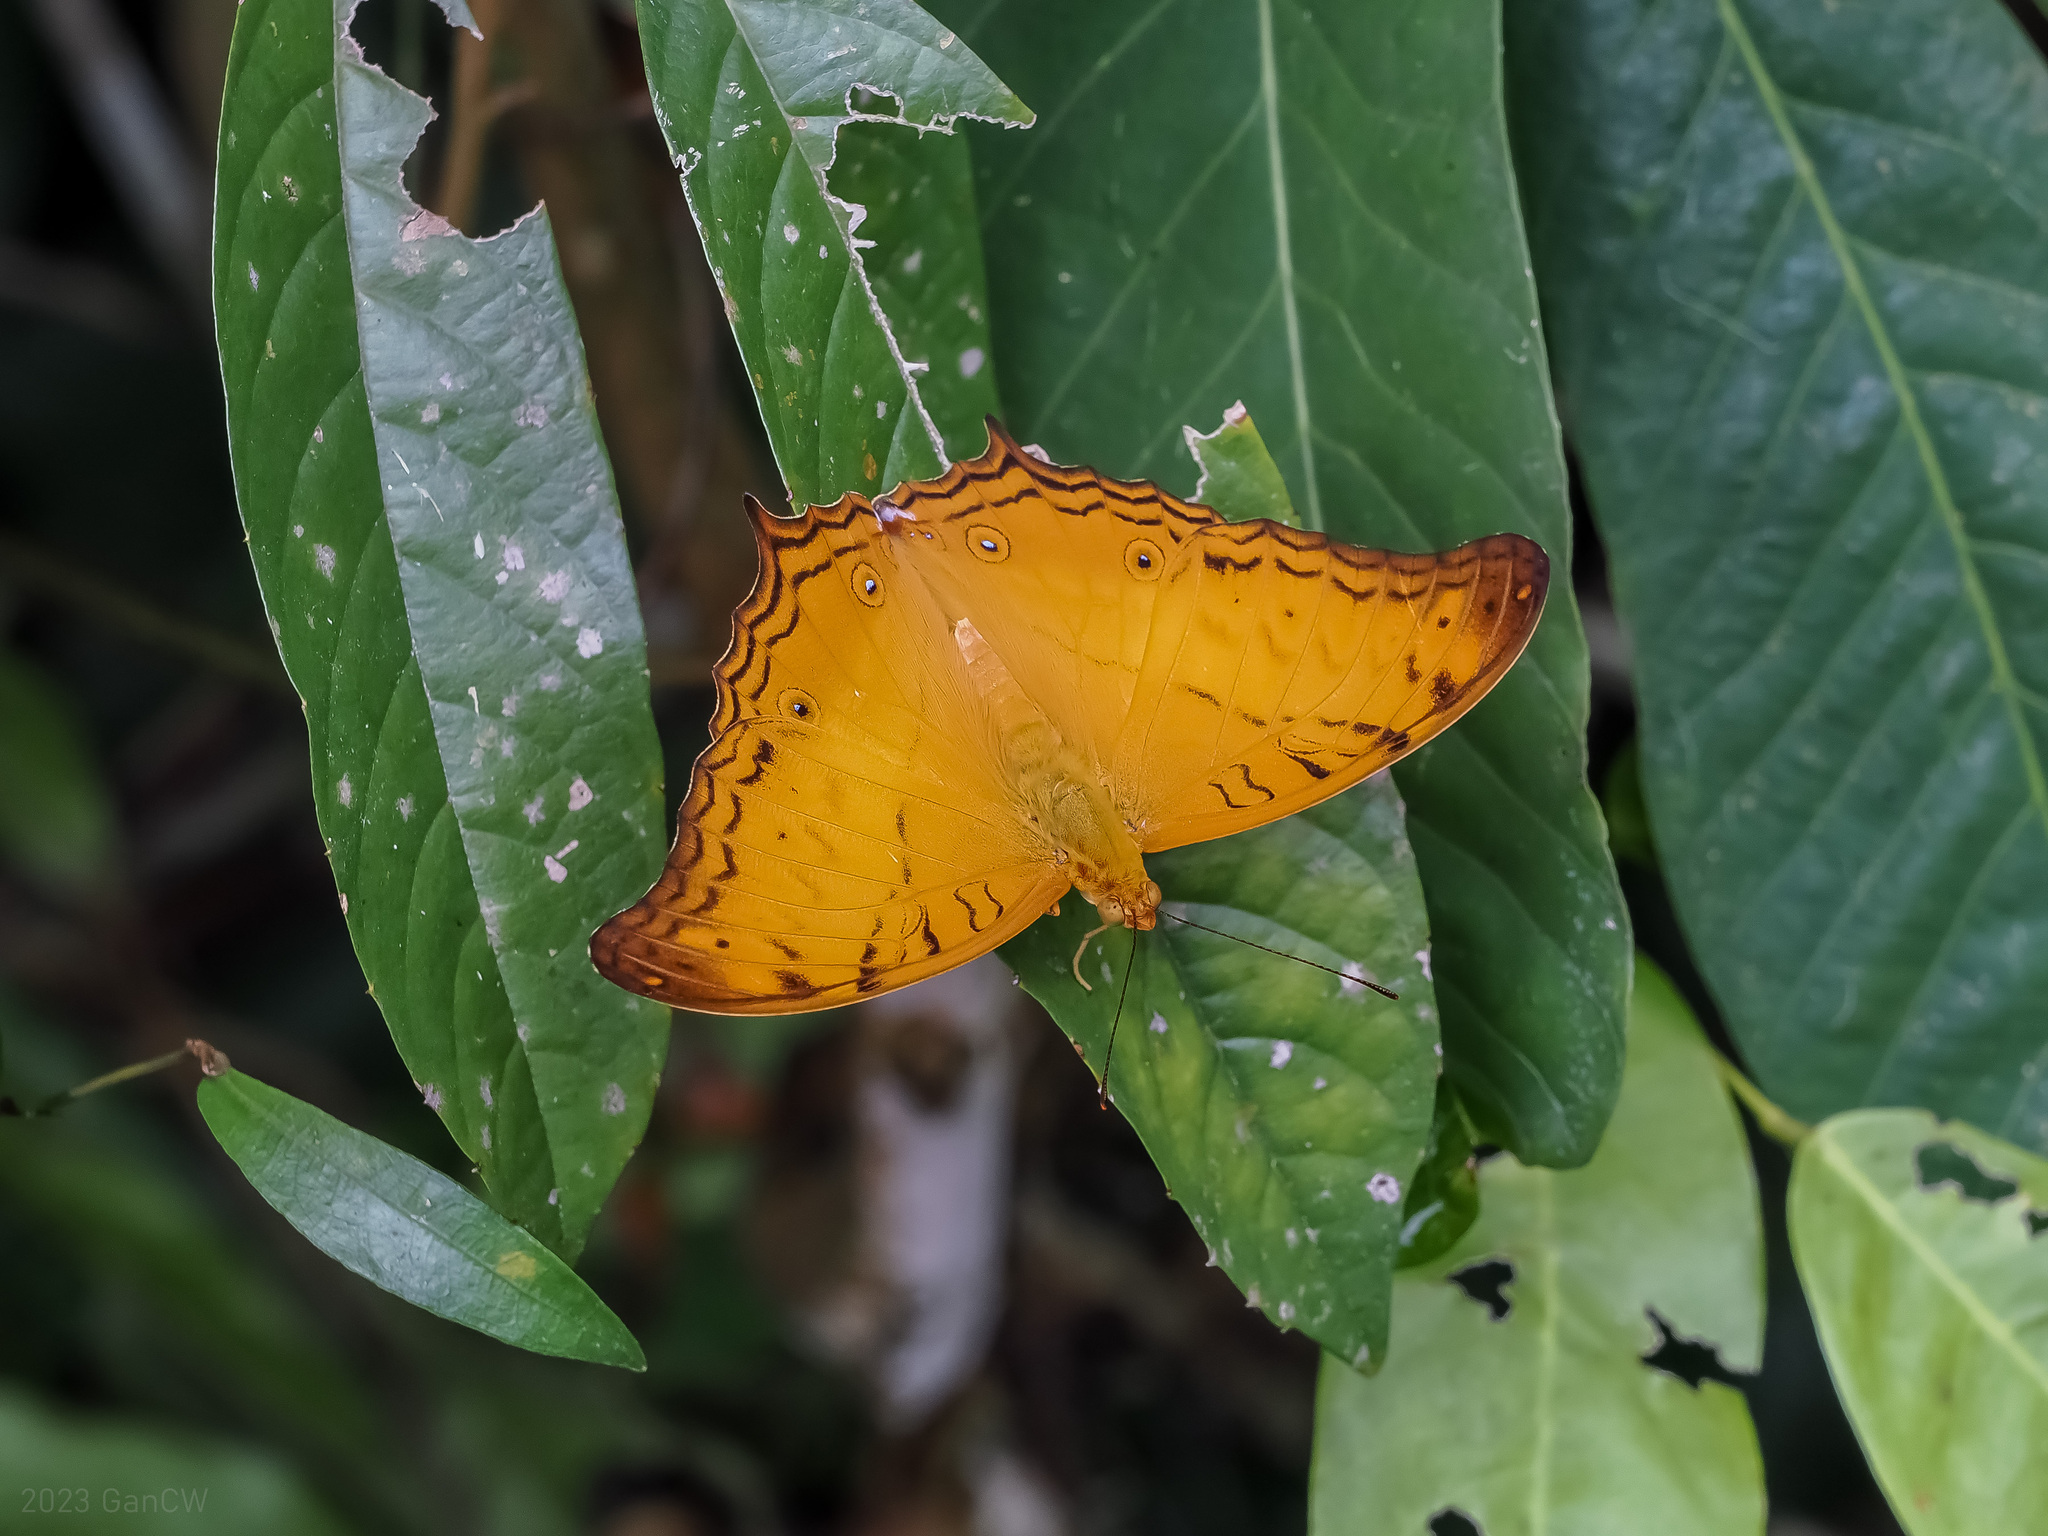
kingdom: Animalia
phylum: Arthropoda
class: Insecta
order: Lepidoptera
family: Nymphalidae
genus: Vindula
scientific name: Vindula deione
